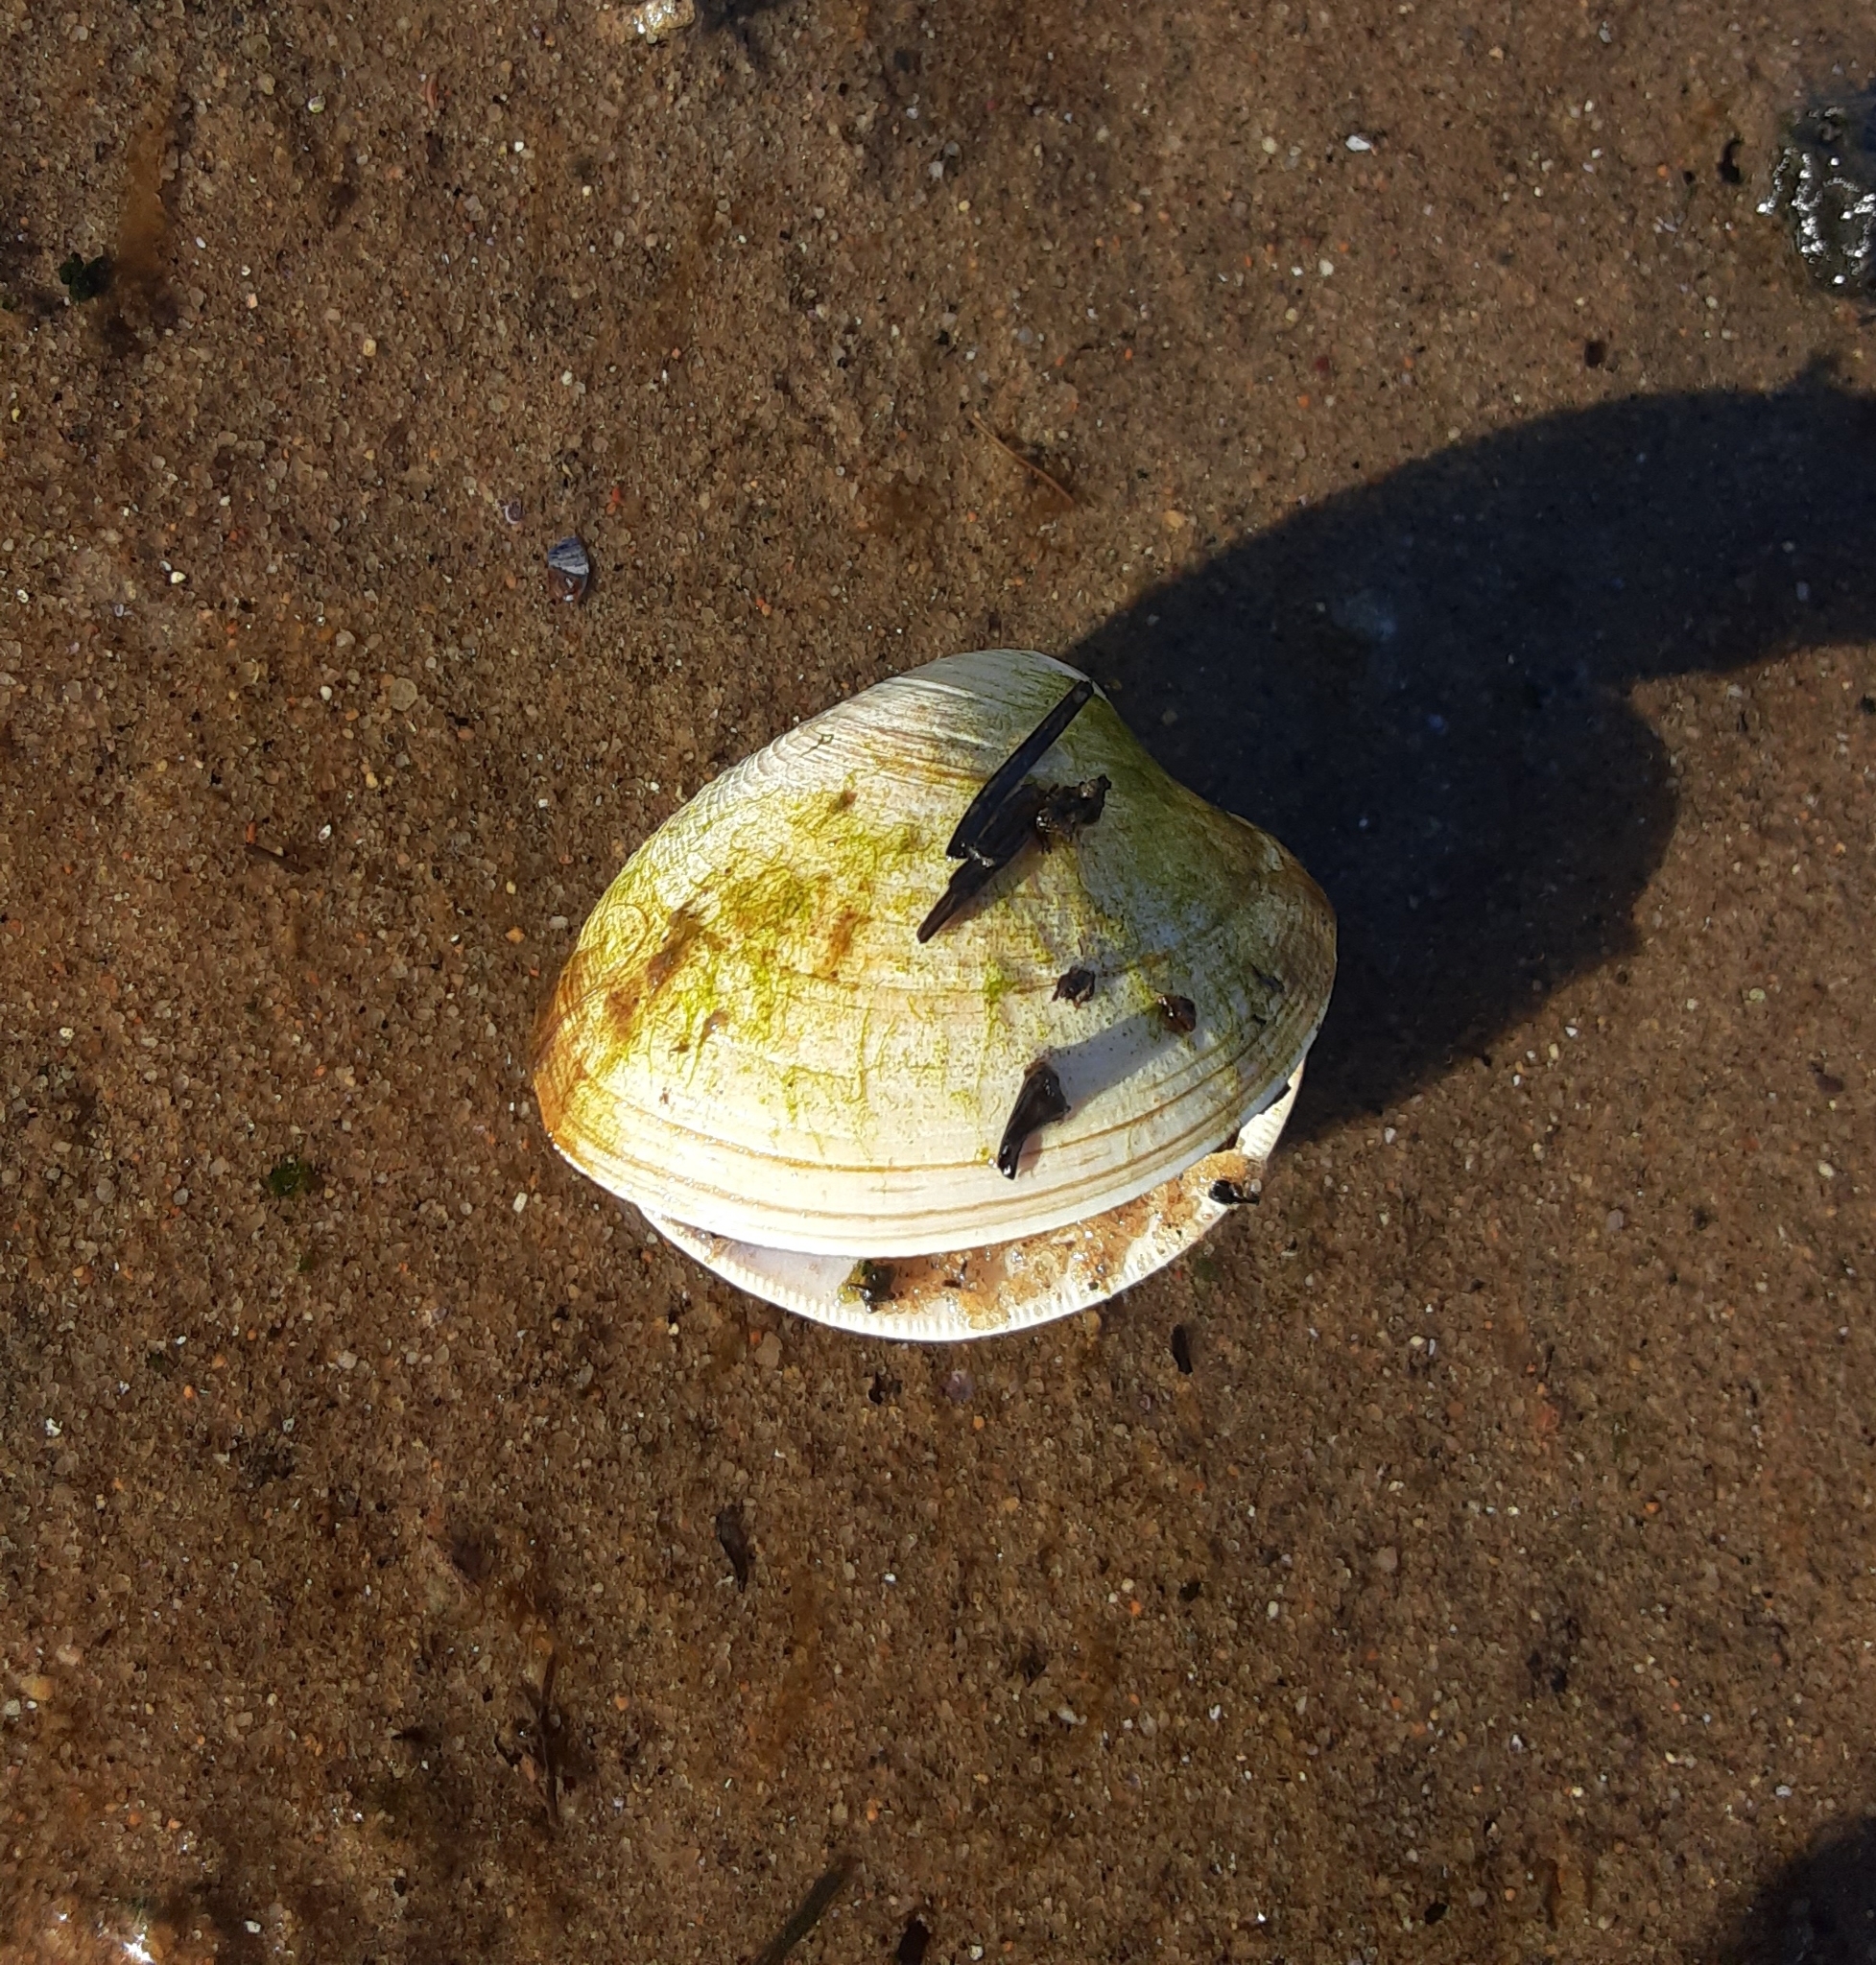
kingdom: Animalia
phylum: Mollusca
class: Bivalvia
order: Venerida
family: Veneridae
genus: Mercenaria
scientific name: Mercenaria mercenaria
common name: American hard-shelled clam
